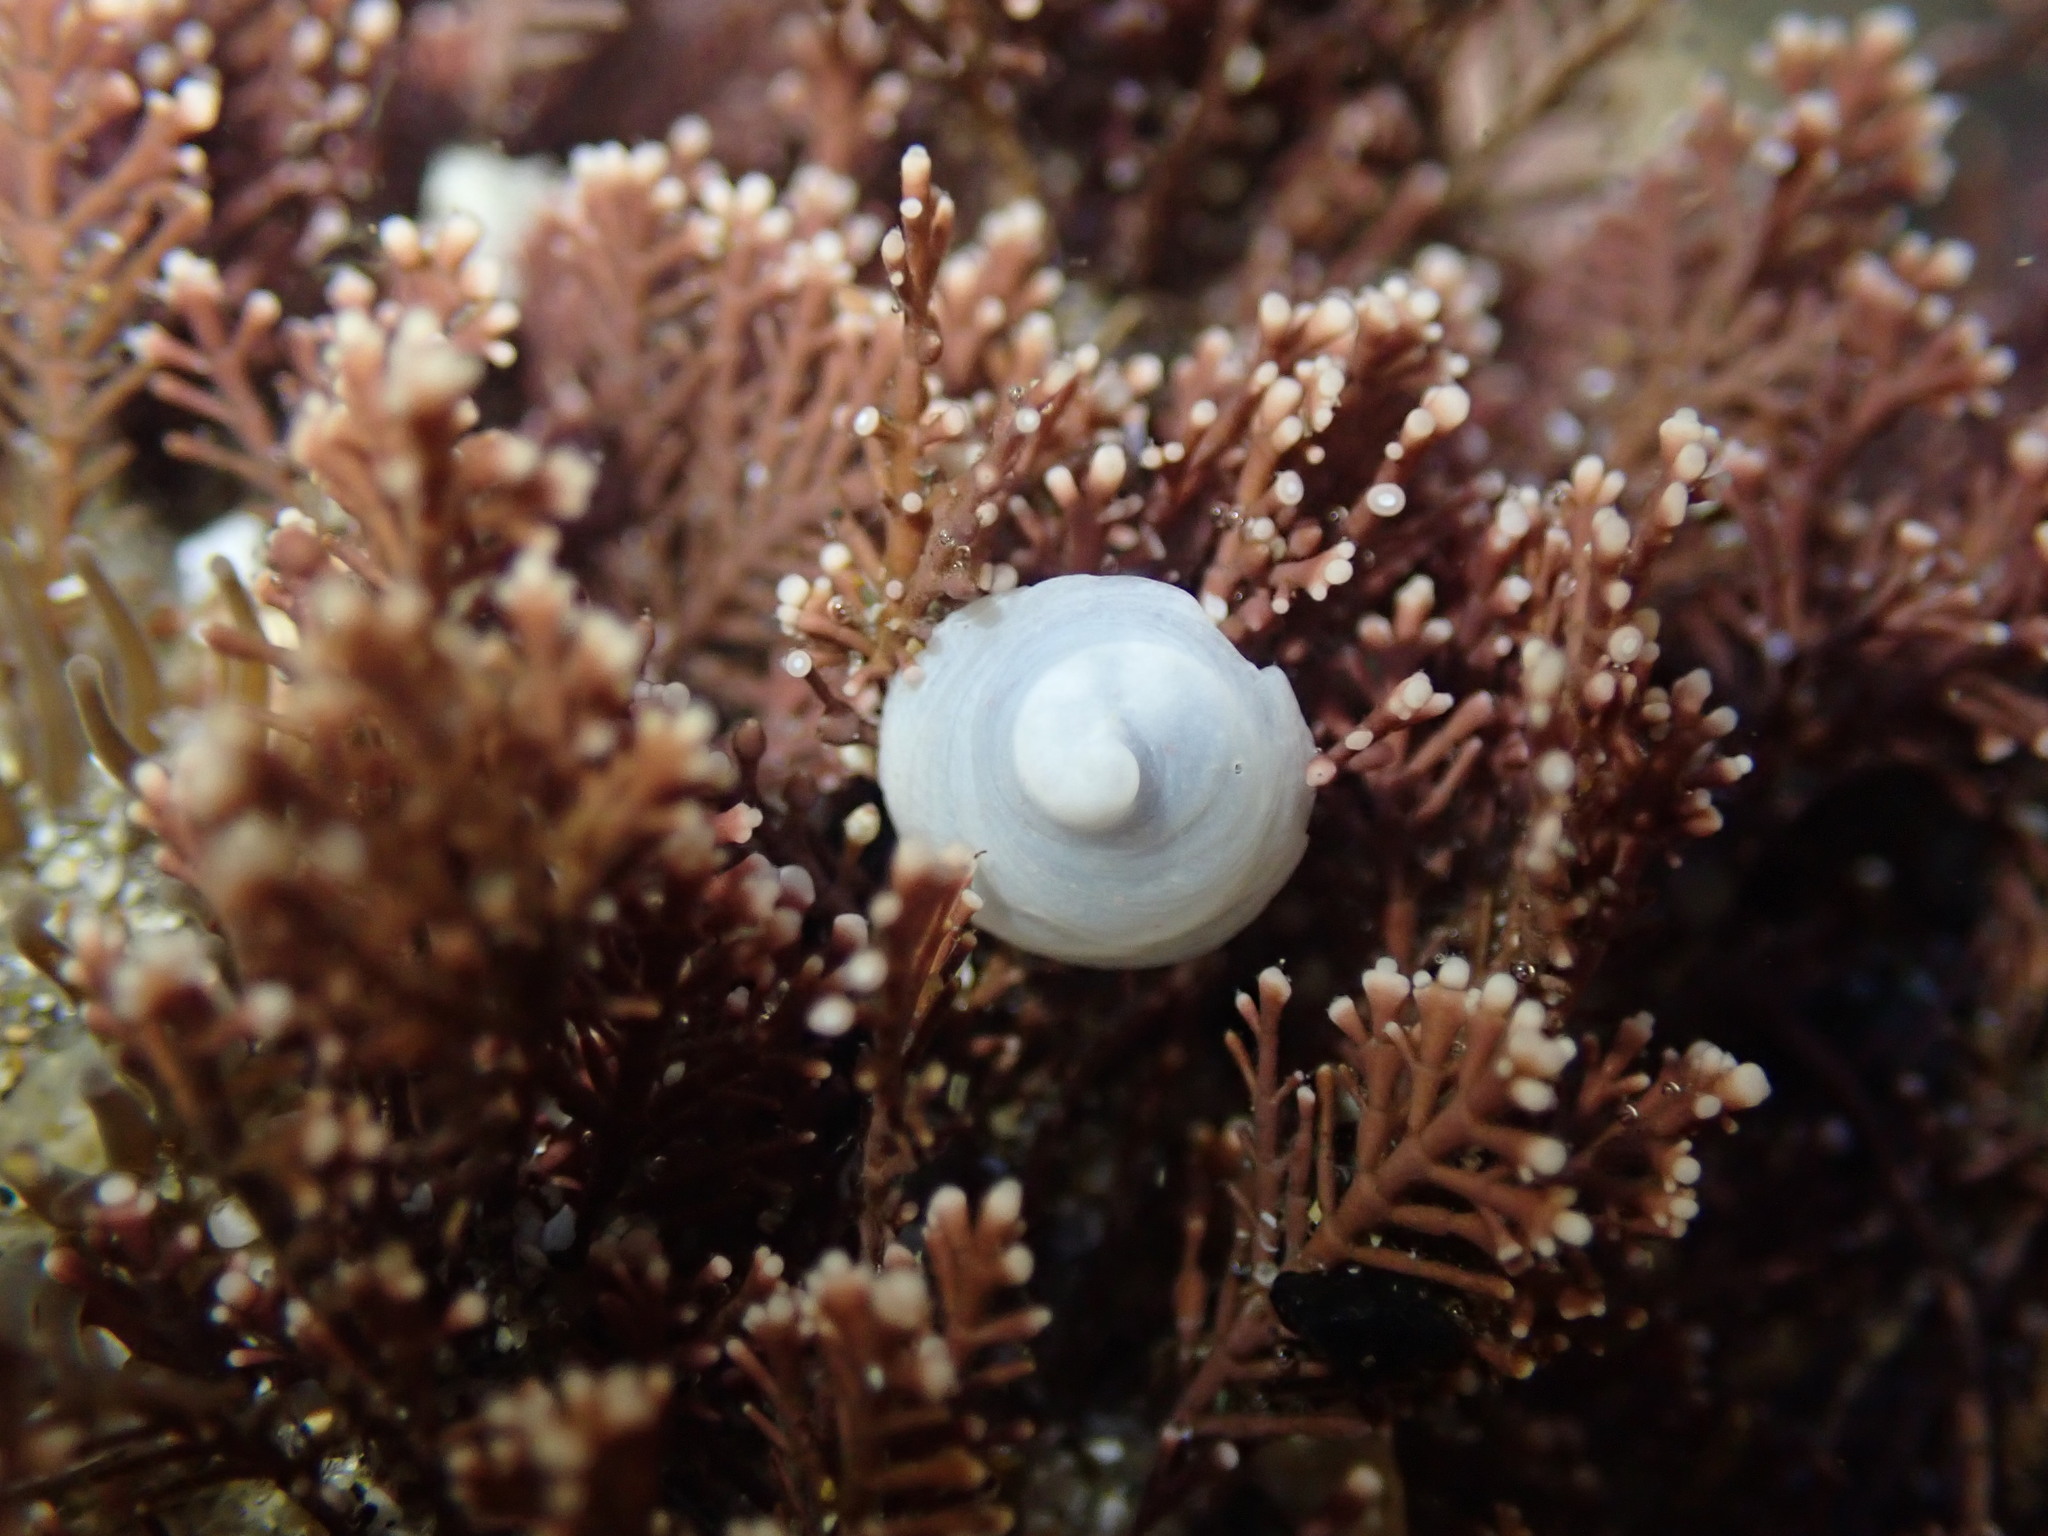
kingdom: Animalia
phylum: Mollusca
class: Gastropoda
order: Littorinimorpha
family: Calyptraeidae
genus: Sigapatella
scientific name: Sigapatella tenuis
